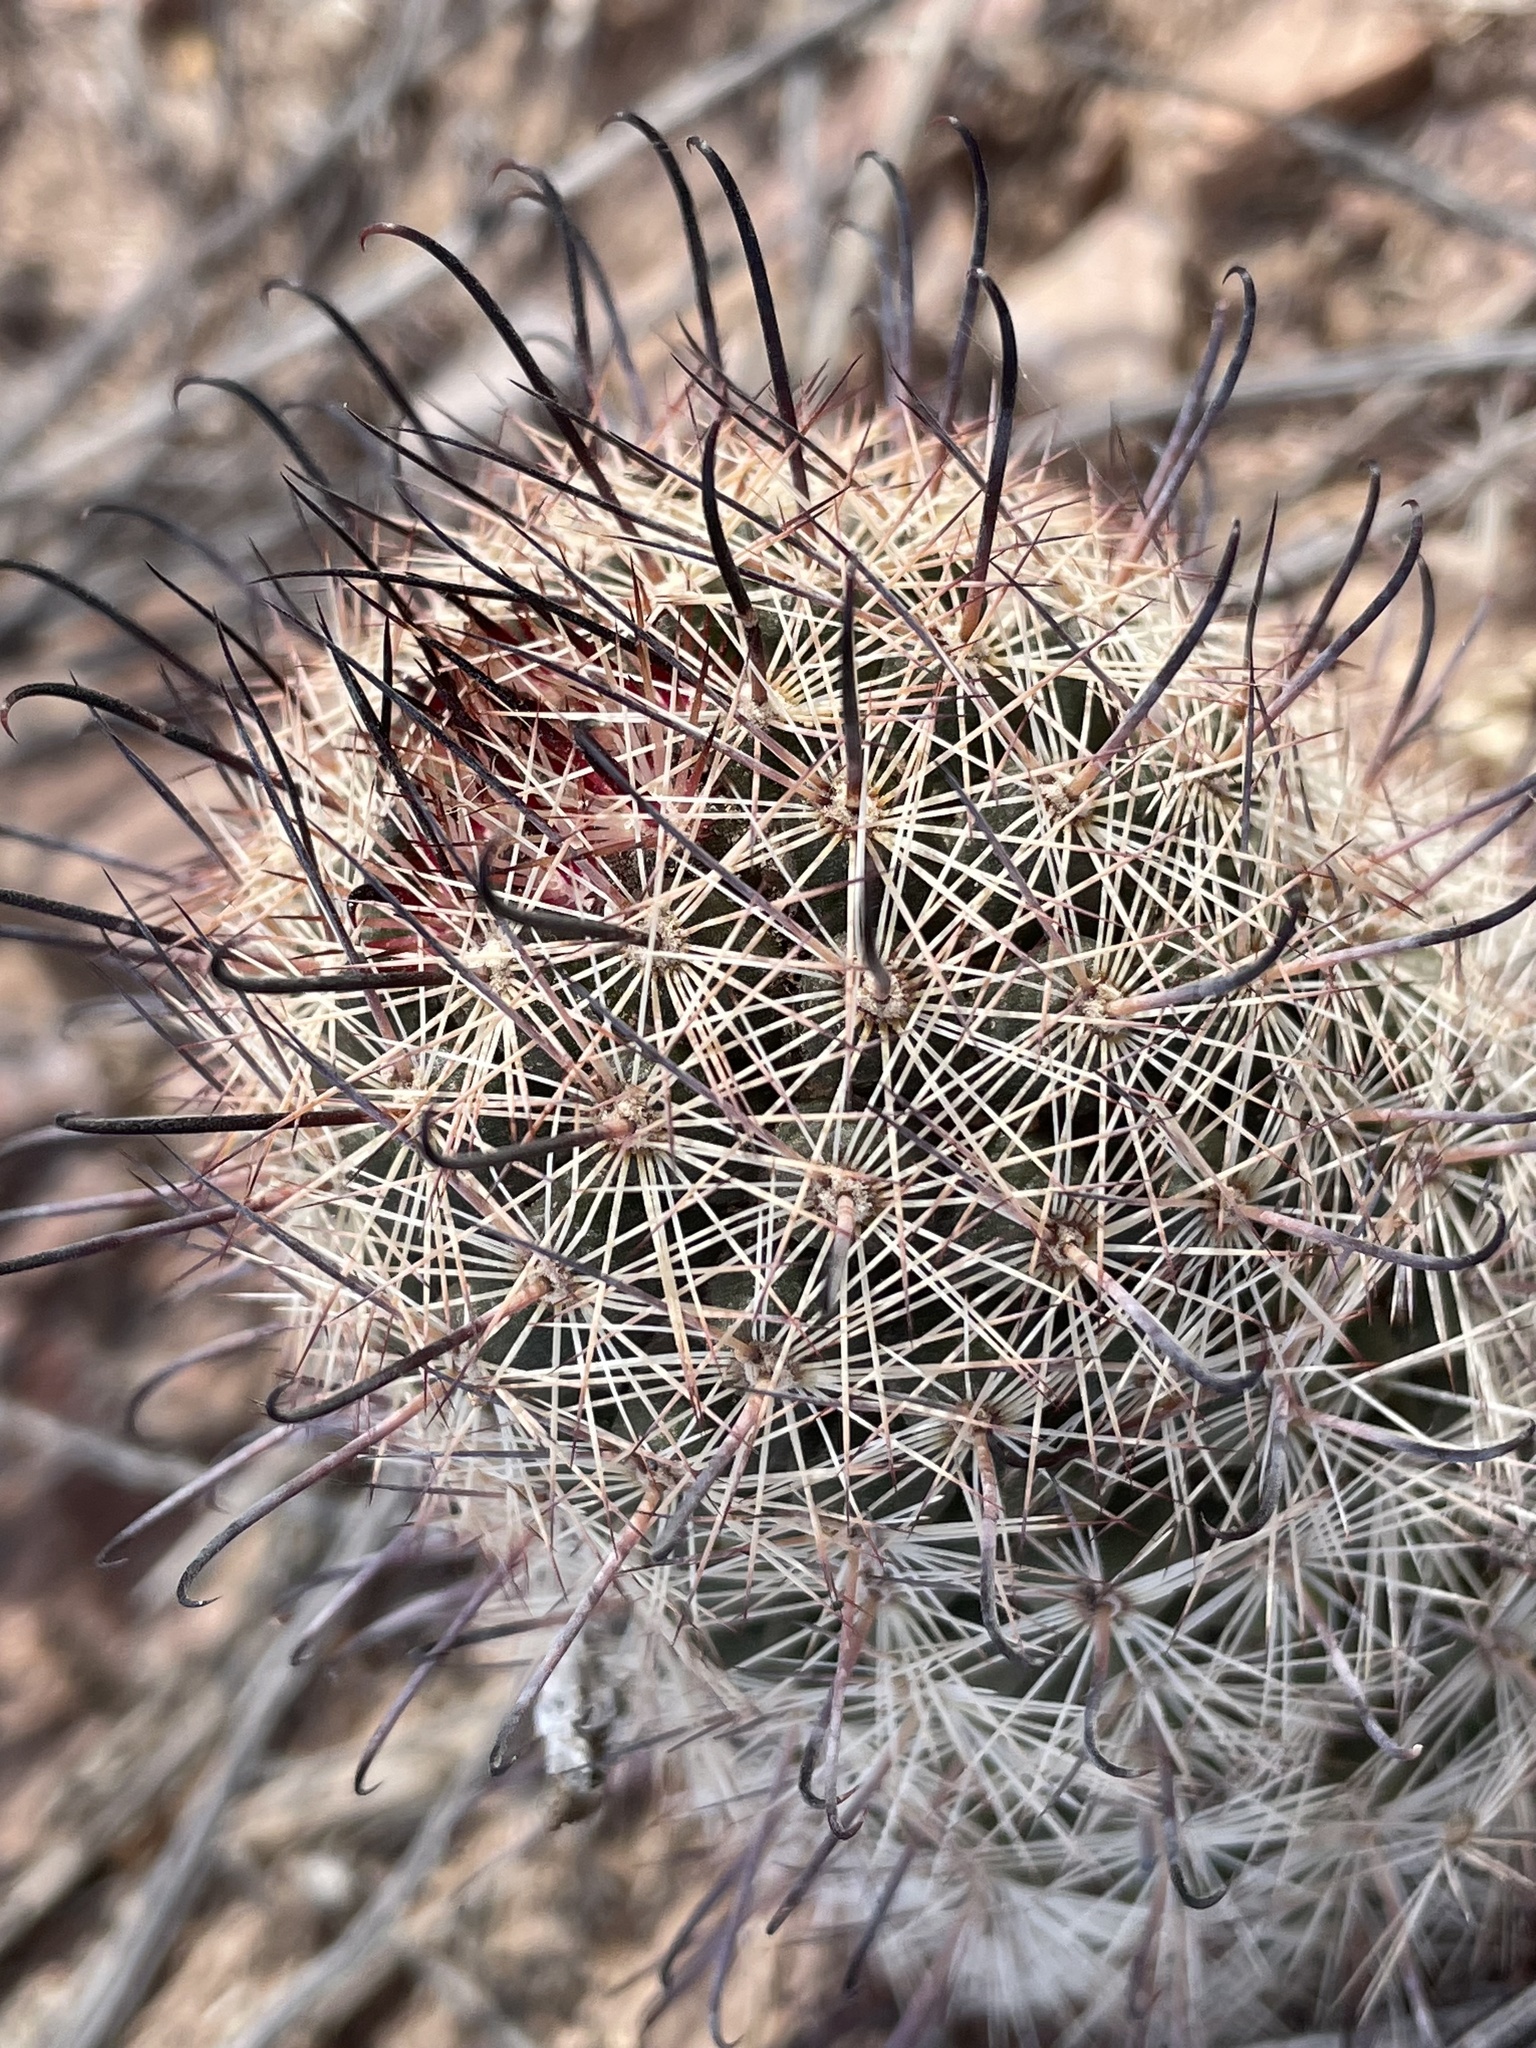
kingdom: Plantae
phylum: Tracheophyta
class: Magnoliopsida
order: Caryophyllales
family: Cactaceae
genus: Cochemiea
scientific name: Cochemiea grahamii
